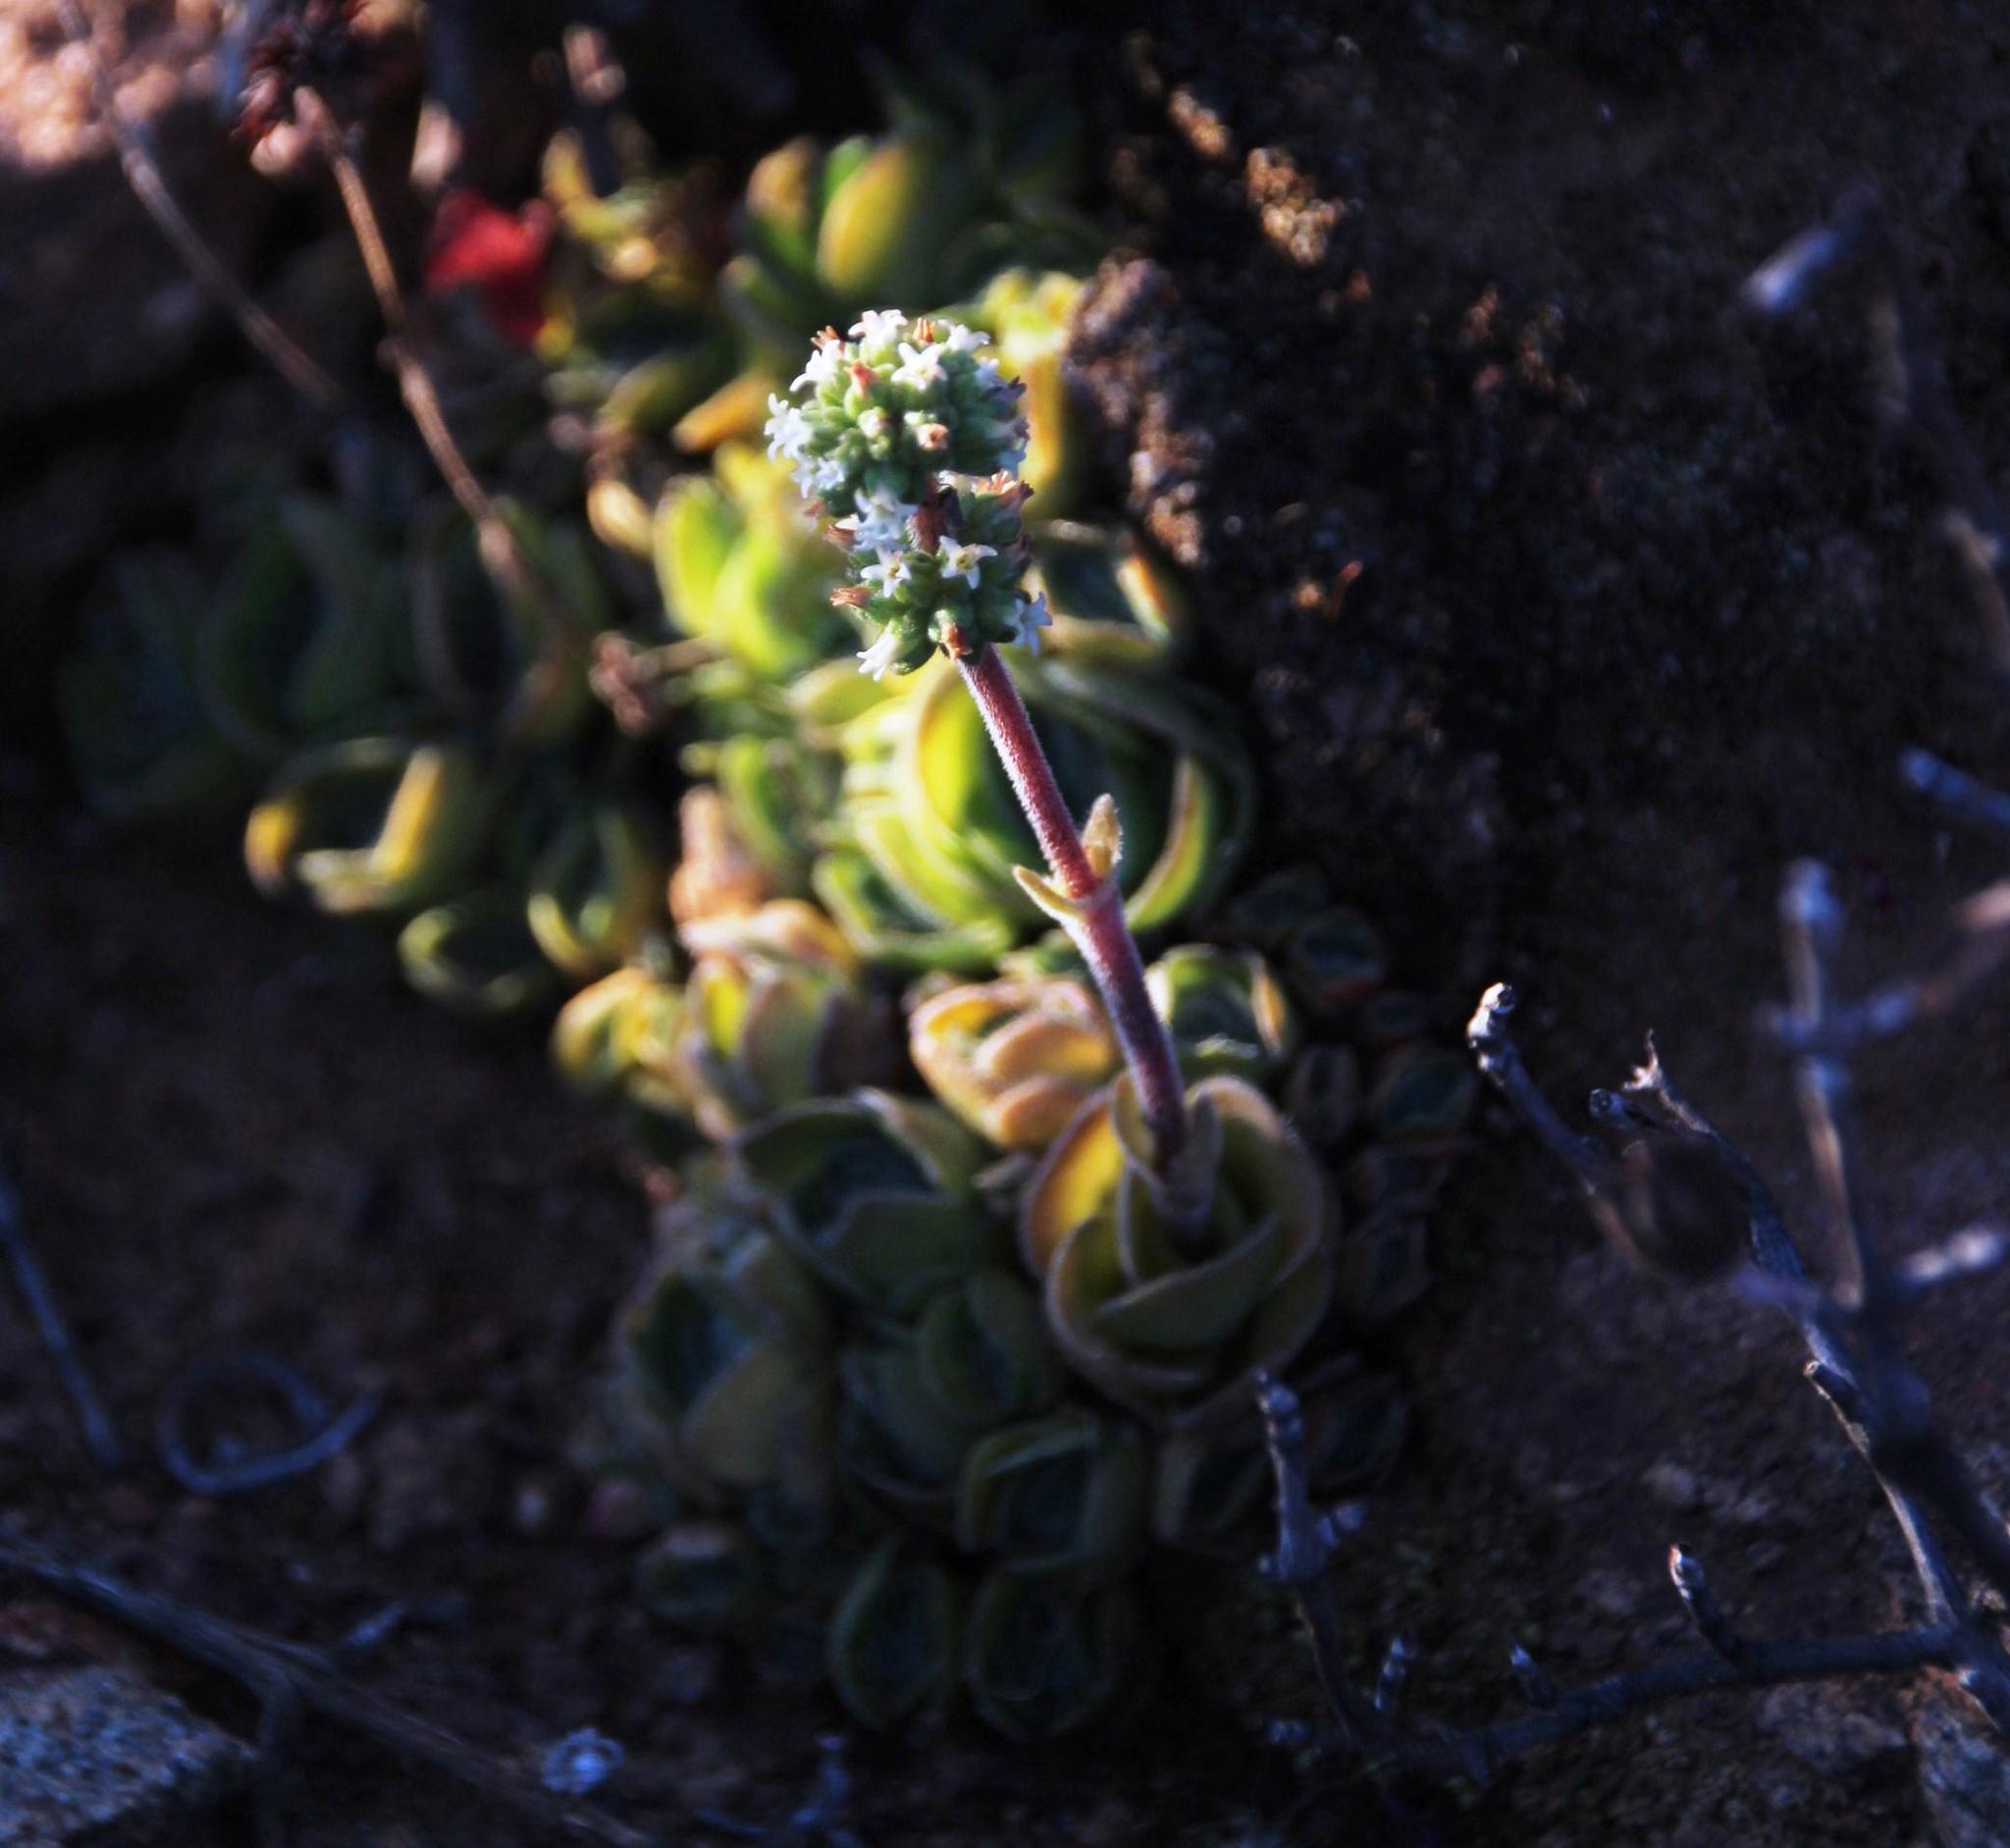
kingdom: Plantae
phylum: Tracheophyta
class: Magnoliopsida
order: Saxifragales
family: Crassulaceae
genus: Crassula
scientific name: Crassula tomentosa
